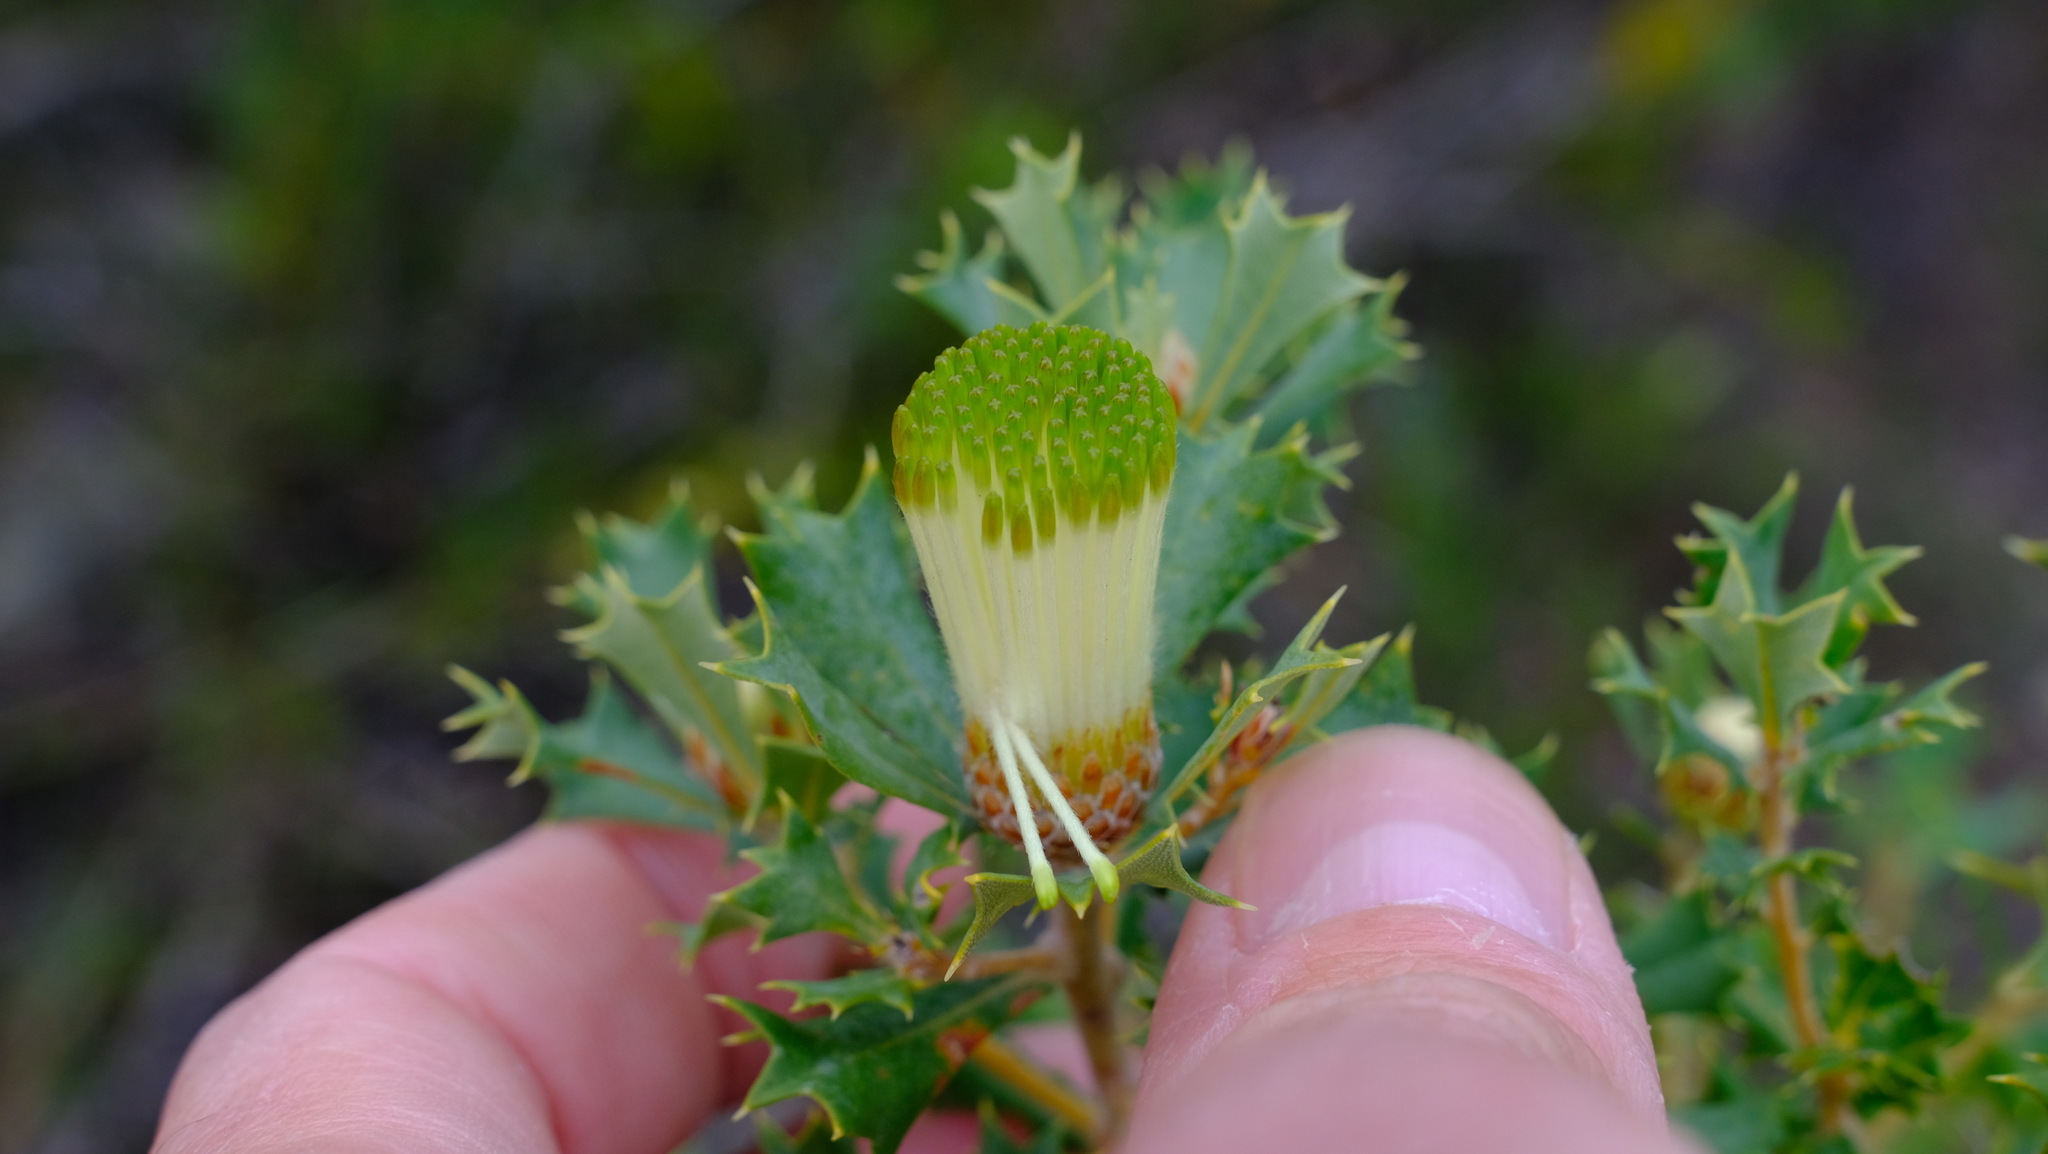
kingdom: Plantae
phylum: Tracheophyta
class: Magnoliopsida
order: Proteales
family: Proteaceae
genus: Banksia
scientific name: Banksia sessilis
